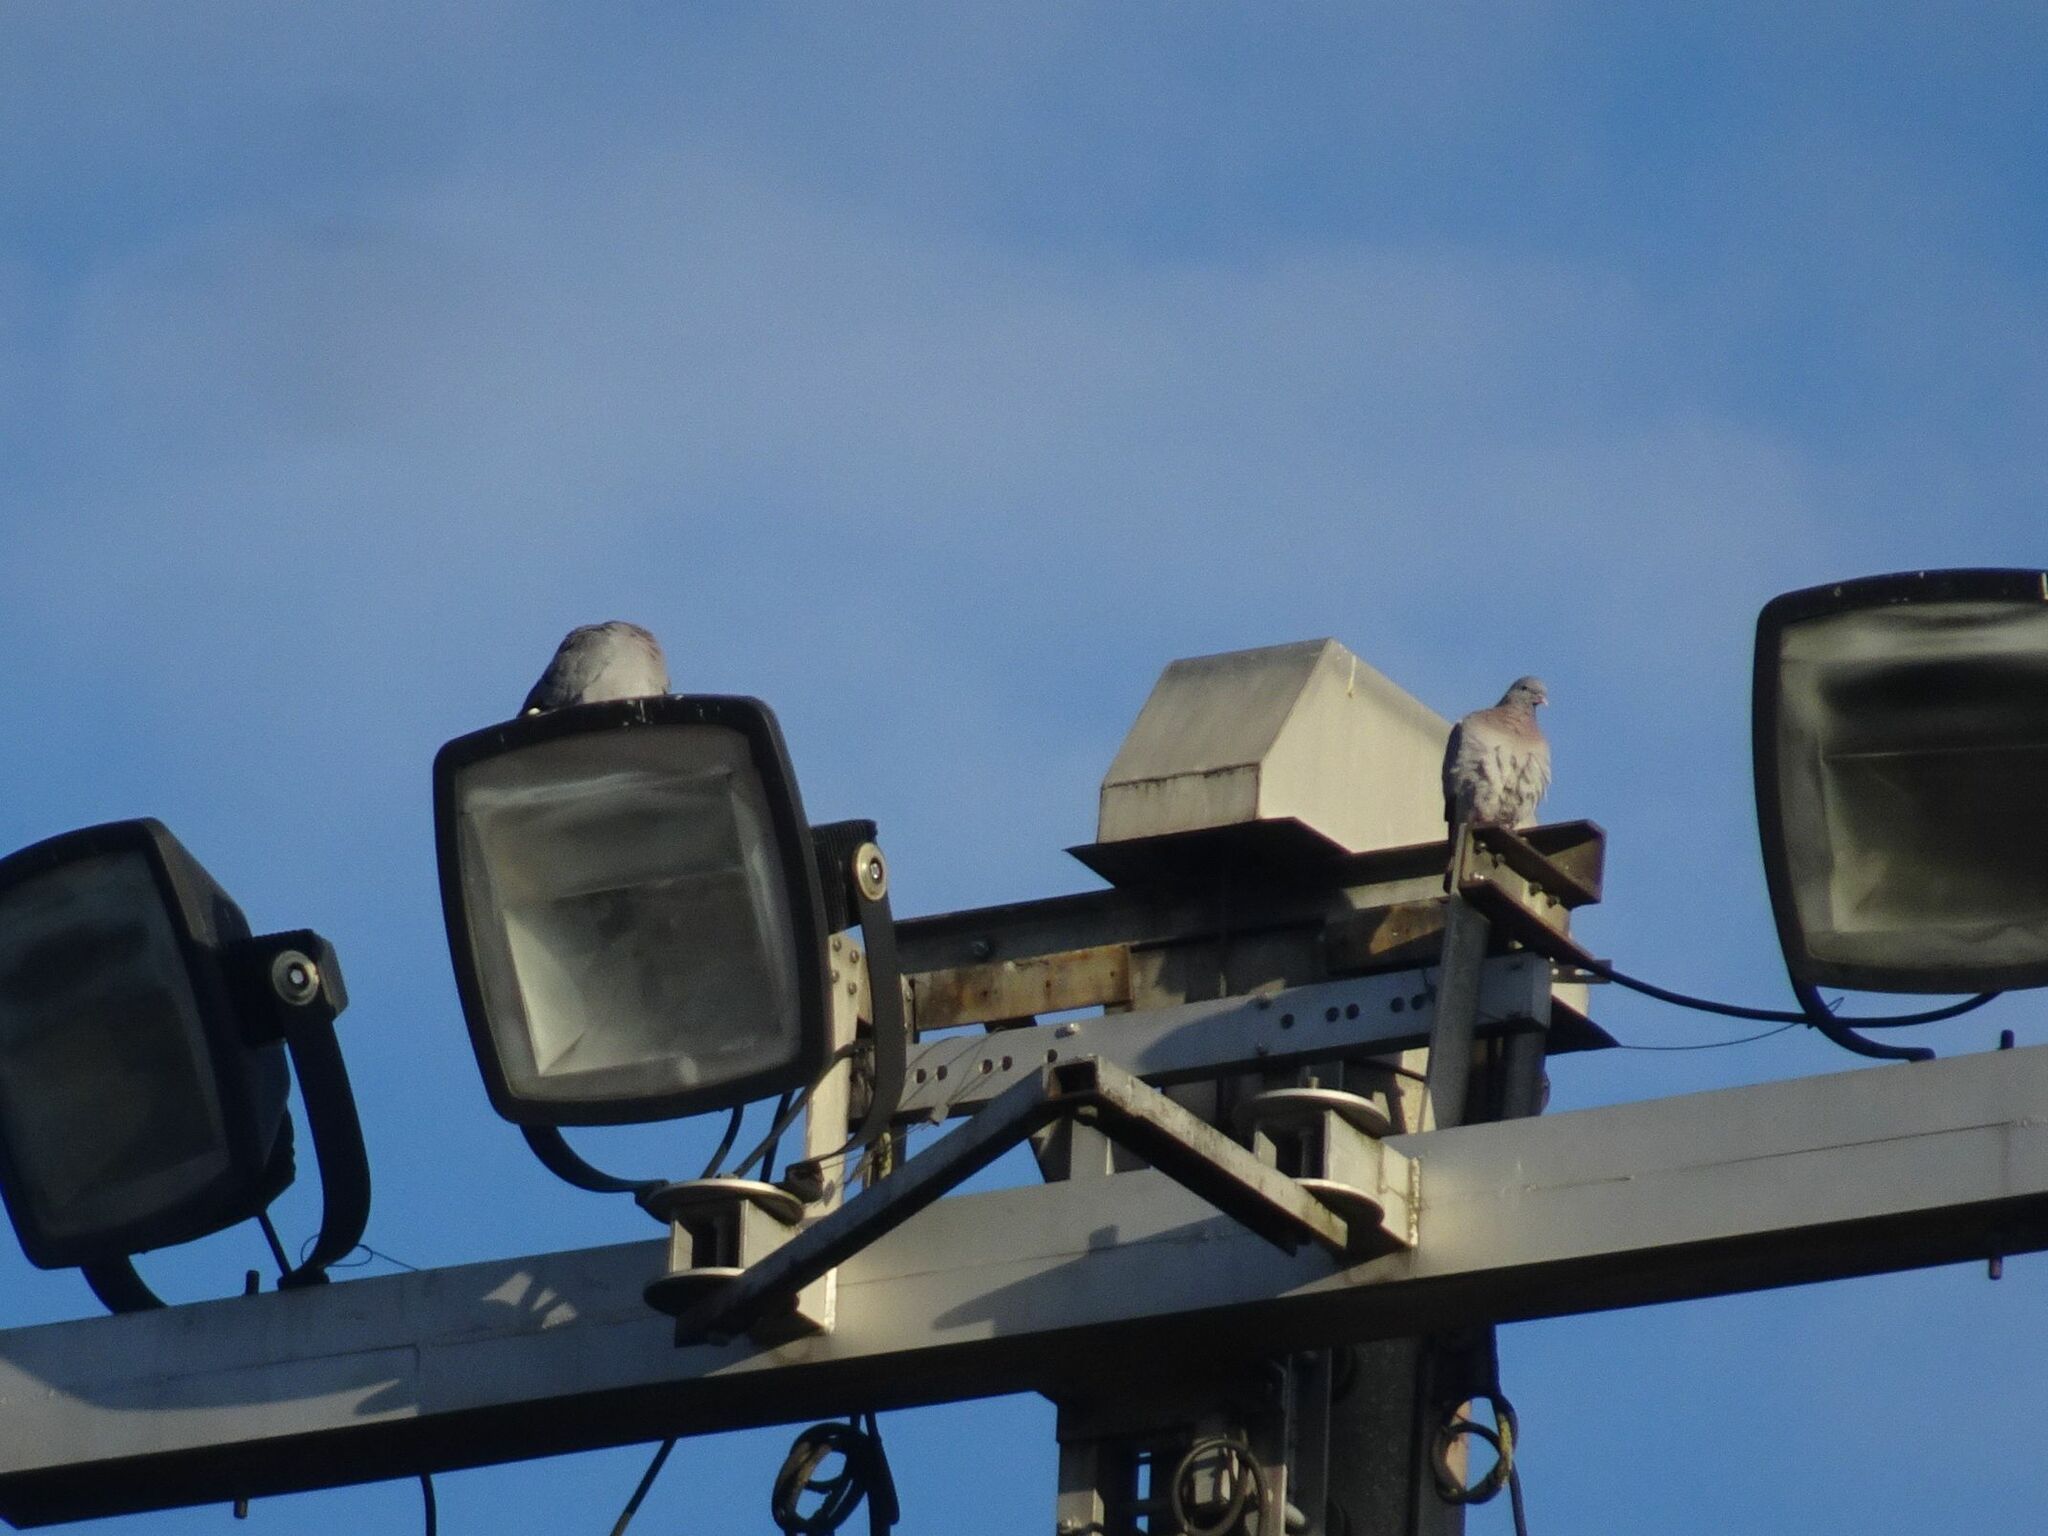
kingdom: Animalia
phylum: Chordata
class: Aves
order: Columbiformes
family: Columbidae
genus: Columba
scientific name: Columba oenas
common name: Stock dove
